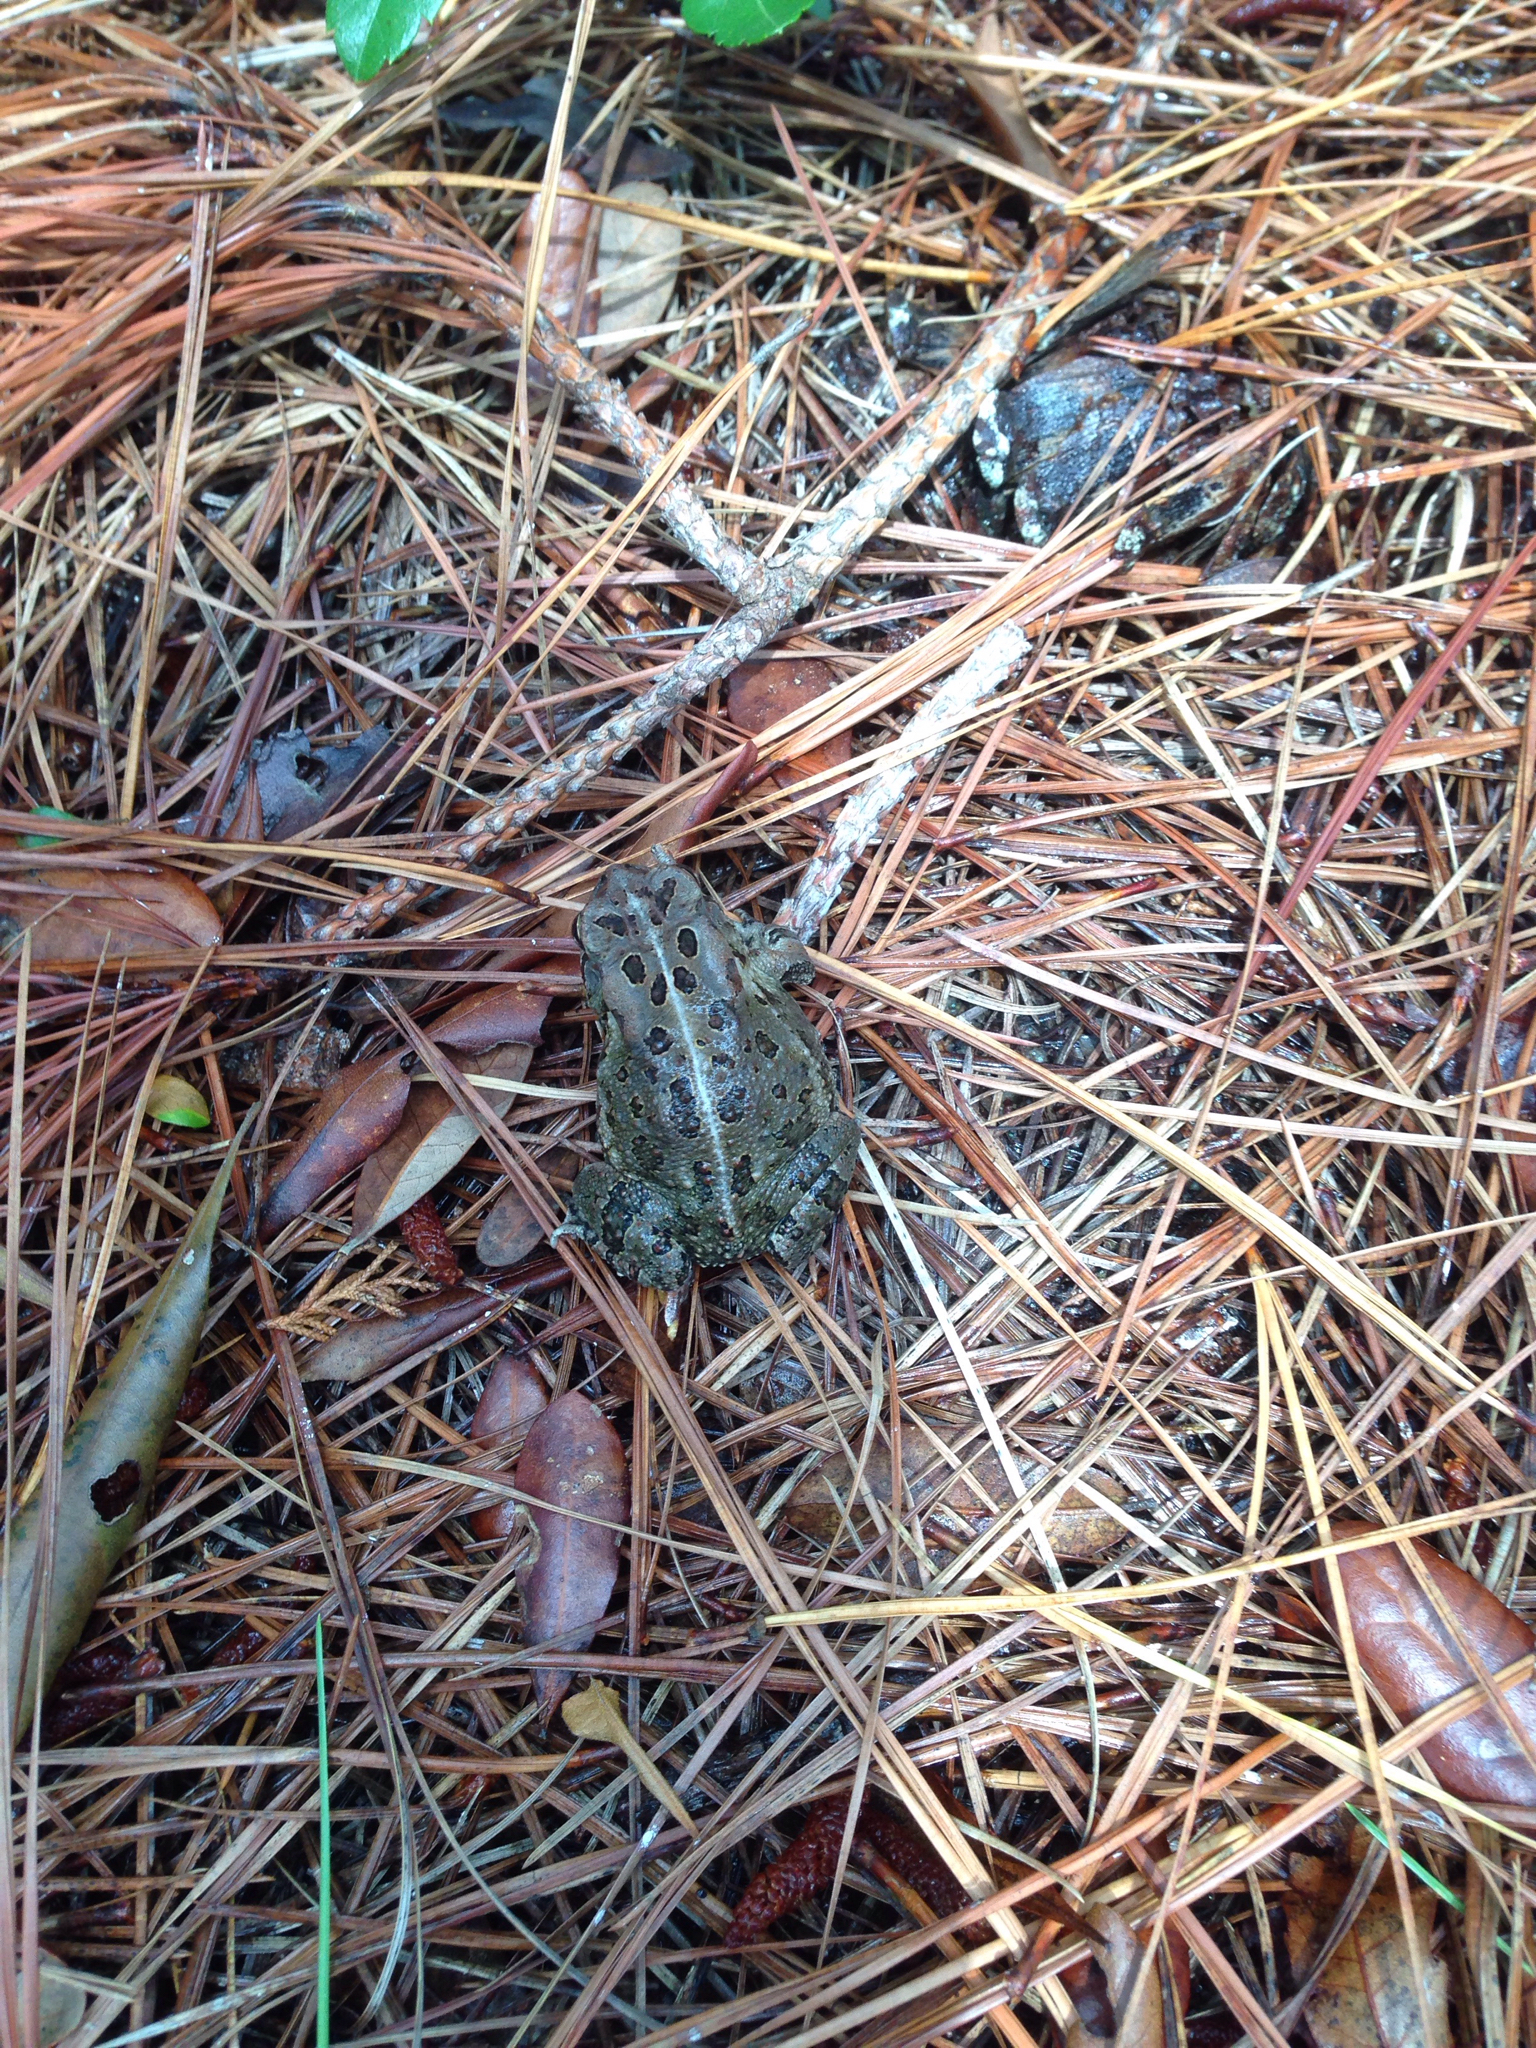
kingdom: Animalia
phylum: Chordata
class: Amphibia
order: Anura
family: Bufonidae
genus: Anaxyrus
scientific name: Anaxyrus fowleri
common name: Fowler's toad
